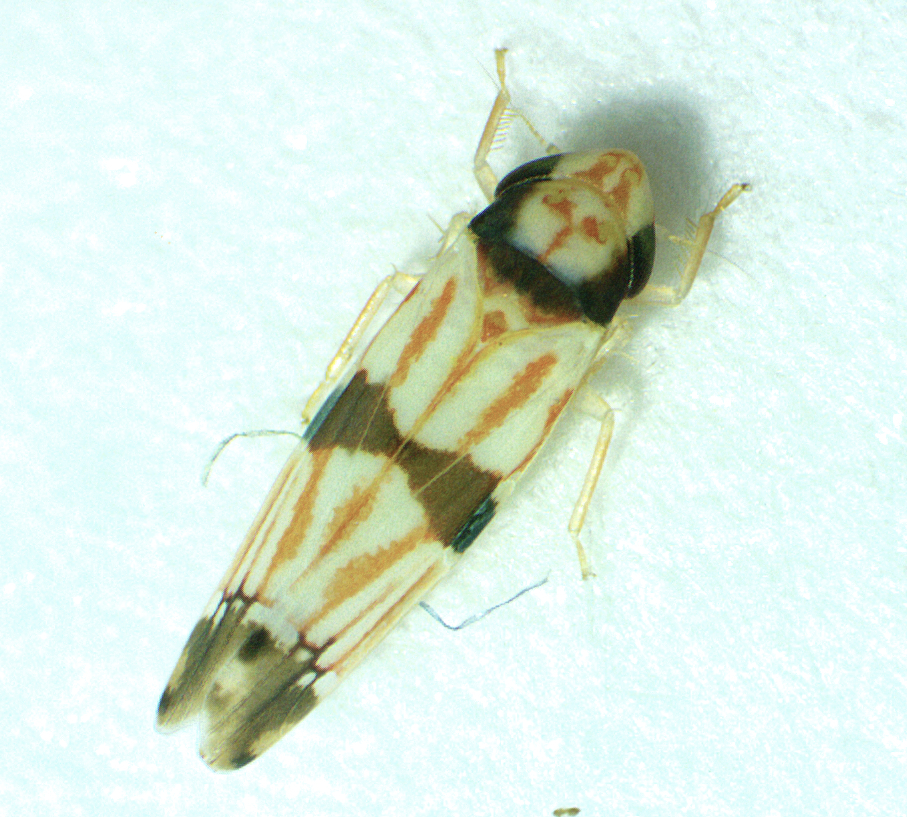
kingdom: Animalia
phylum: Arthropoda
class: Insecta
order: Hemiptera
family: Cicadellidae
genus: Erythroneura
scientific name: Erythroneura calycula
